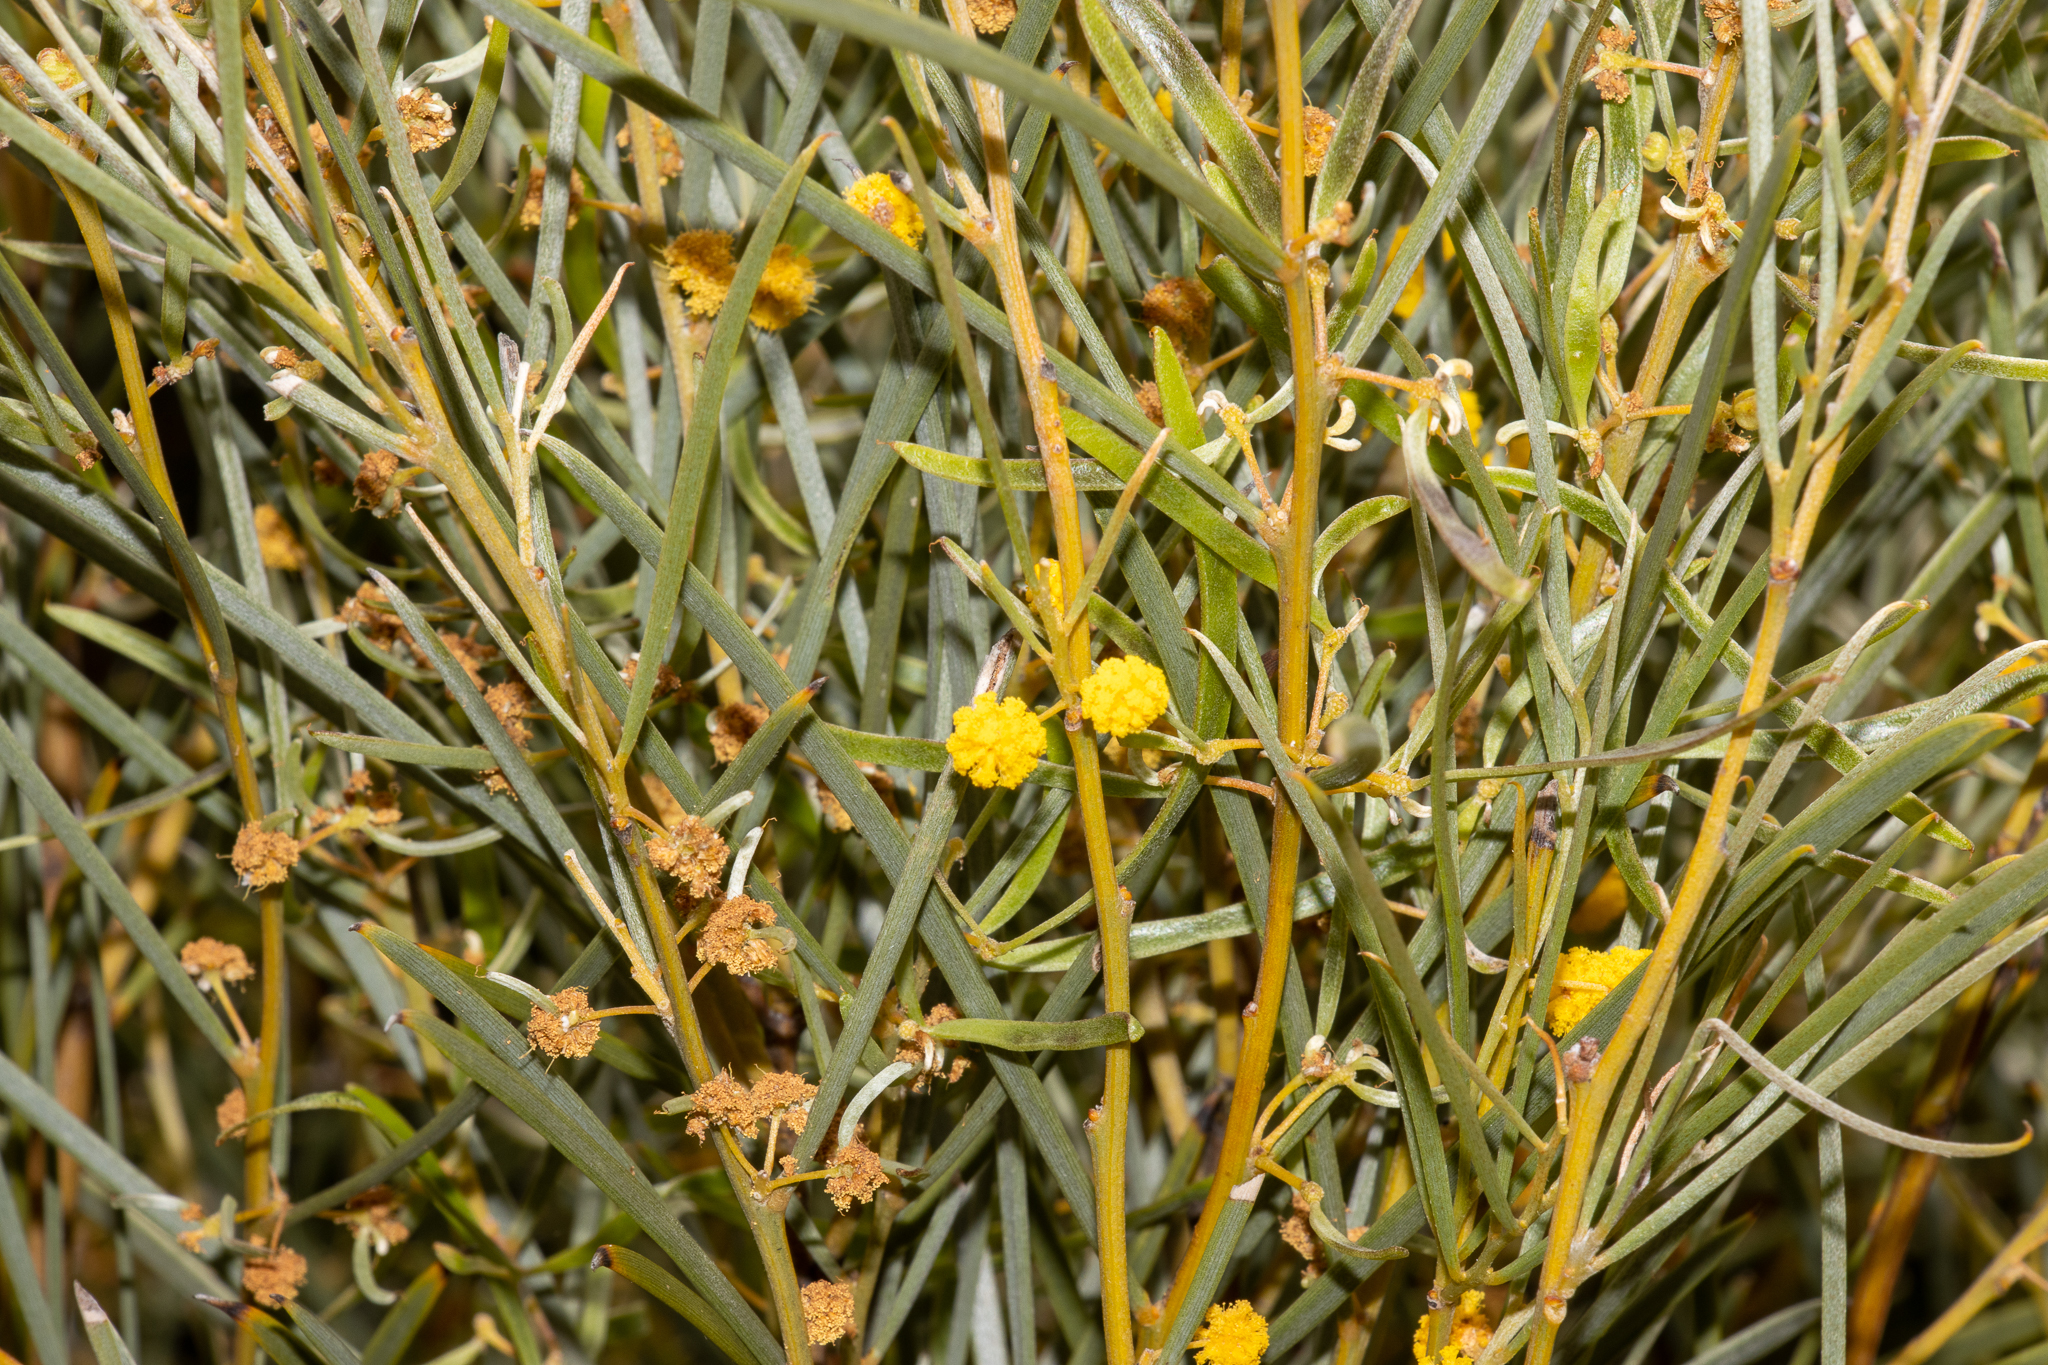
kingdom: Plantae
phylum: Tracheophyta
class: Magnoliopsida
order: Fabales
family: Fabaceae
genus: Acacia
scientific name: Acacia papyrocarpa
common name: Western myall
